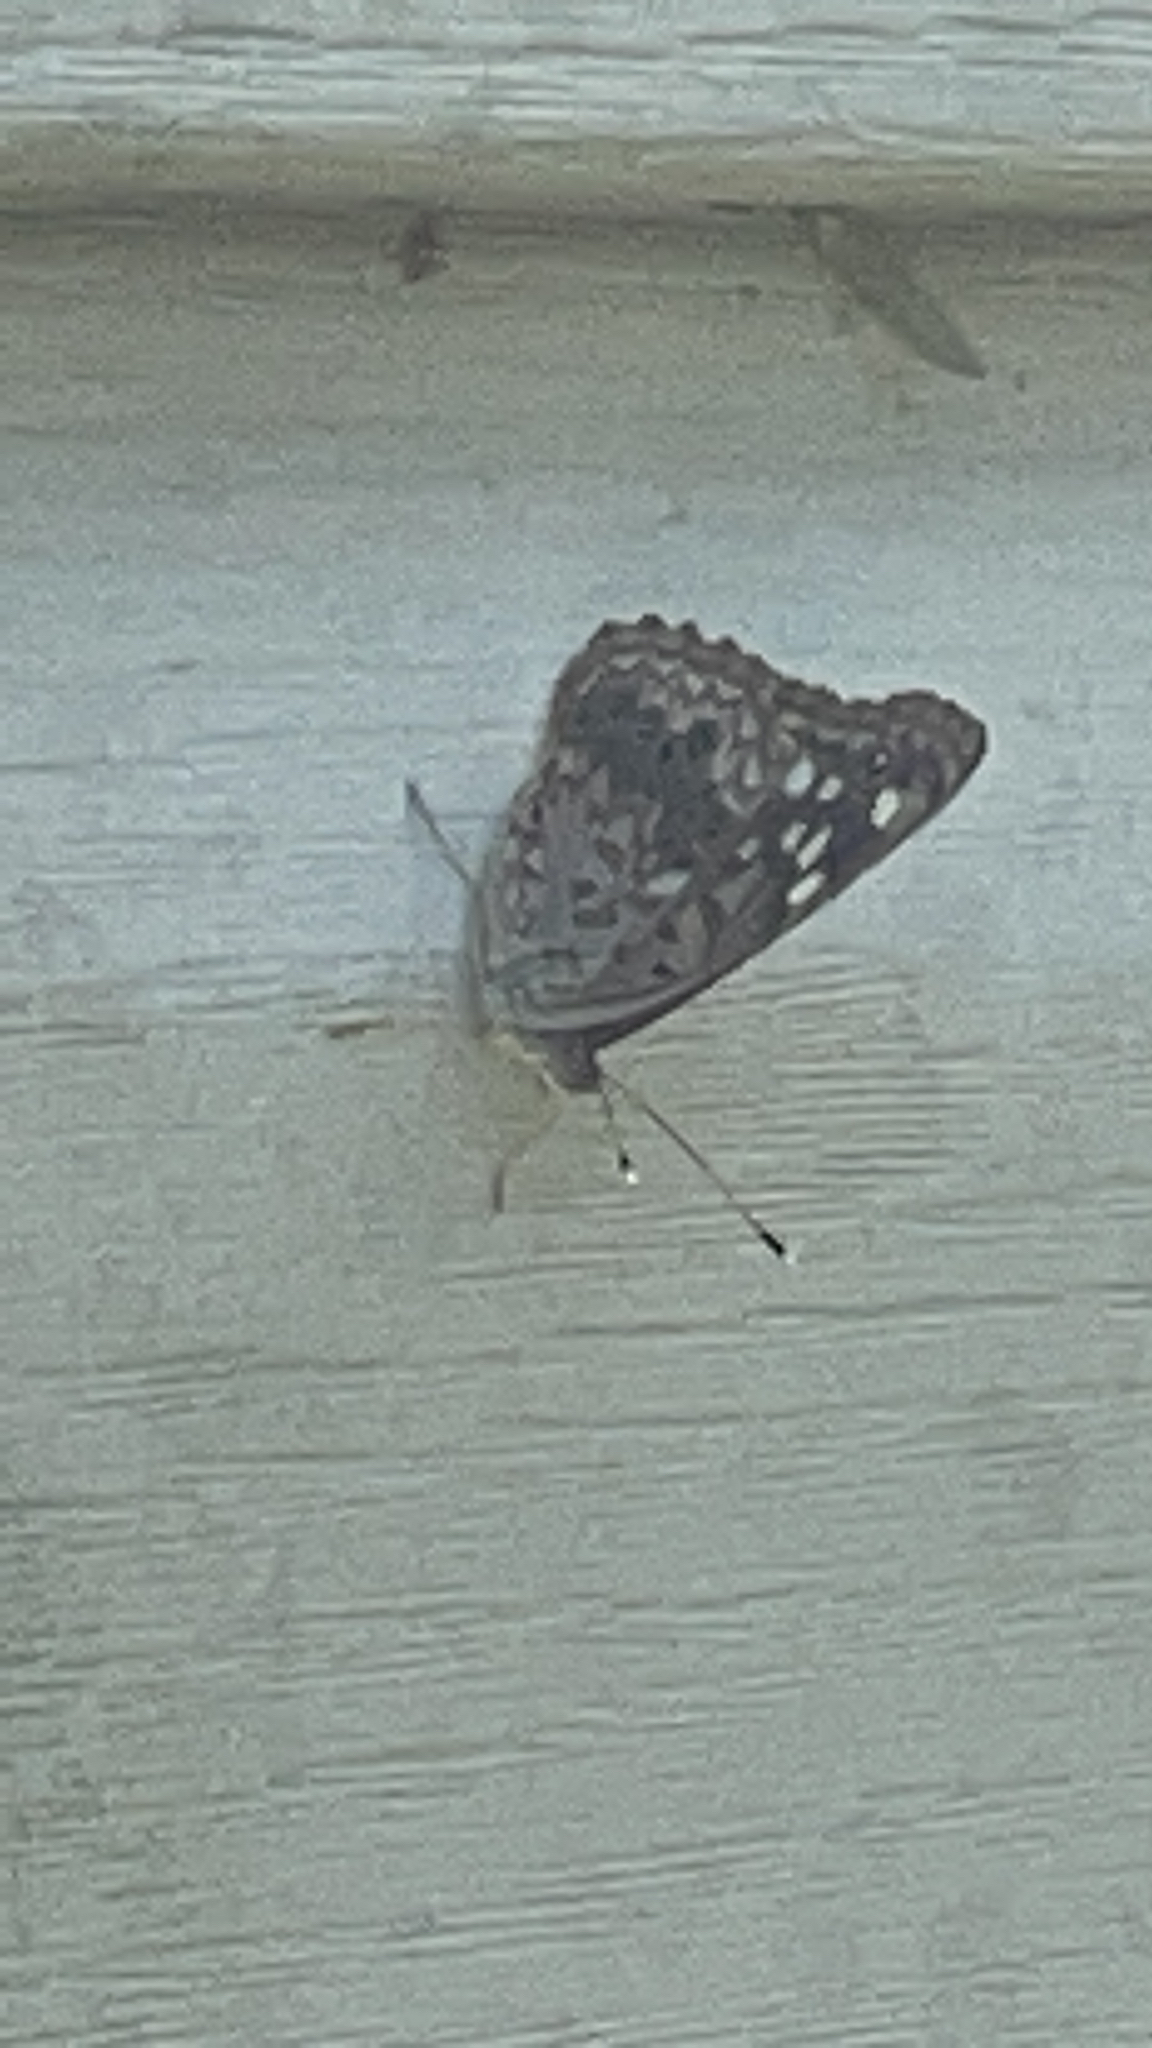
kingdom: Animalia
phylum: Arthropoda
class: Insecta
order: Lepidoptera
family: Nymphalidae
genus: Asterocampa
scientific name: Asterocampa celtis
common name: Hackberry emperor
